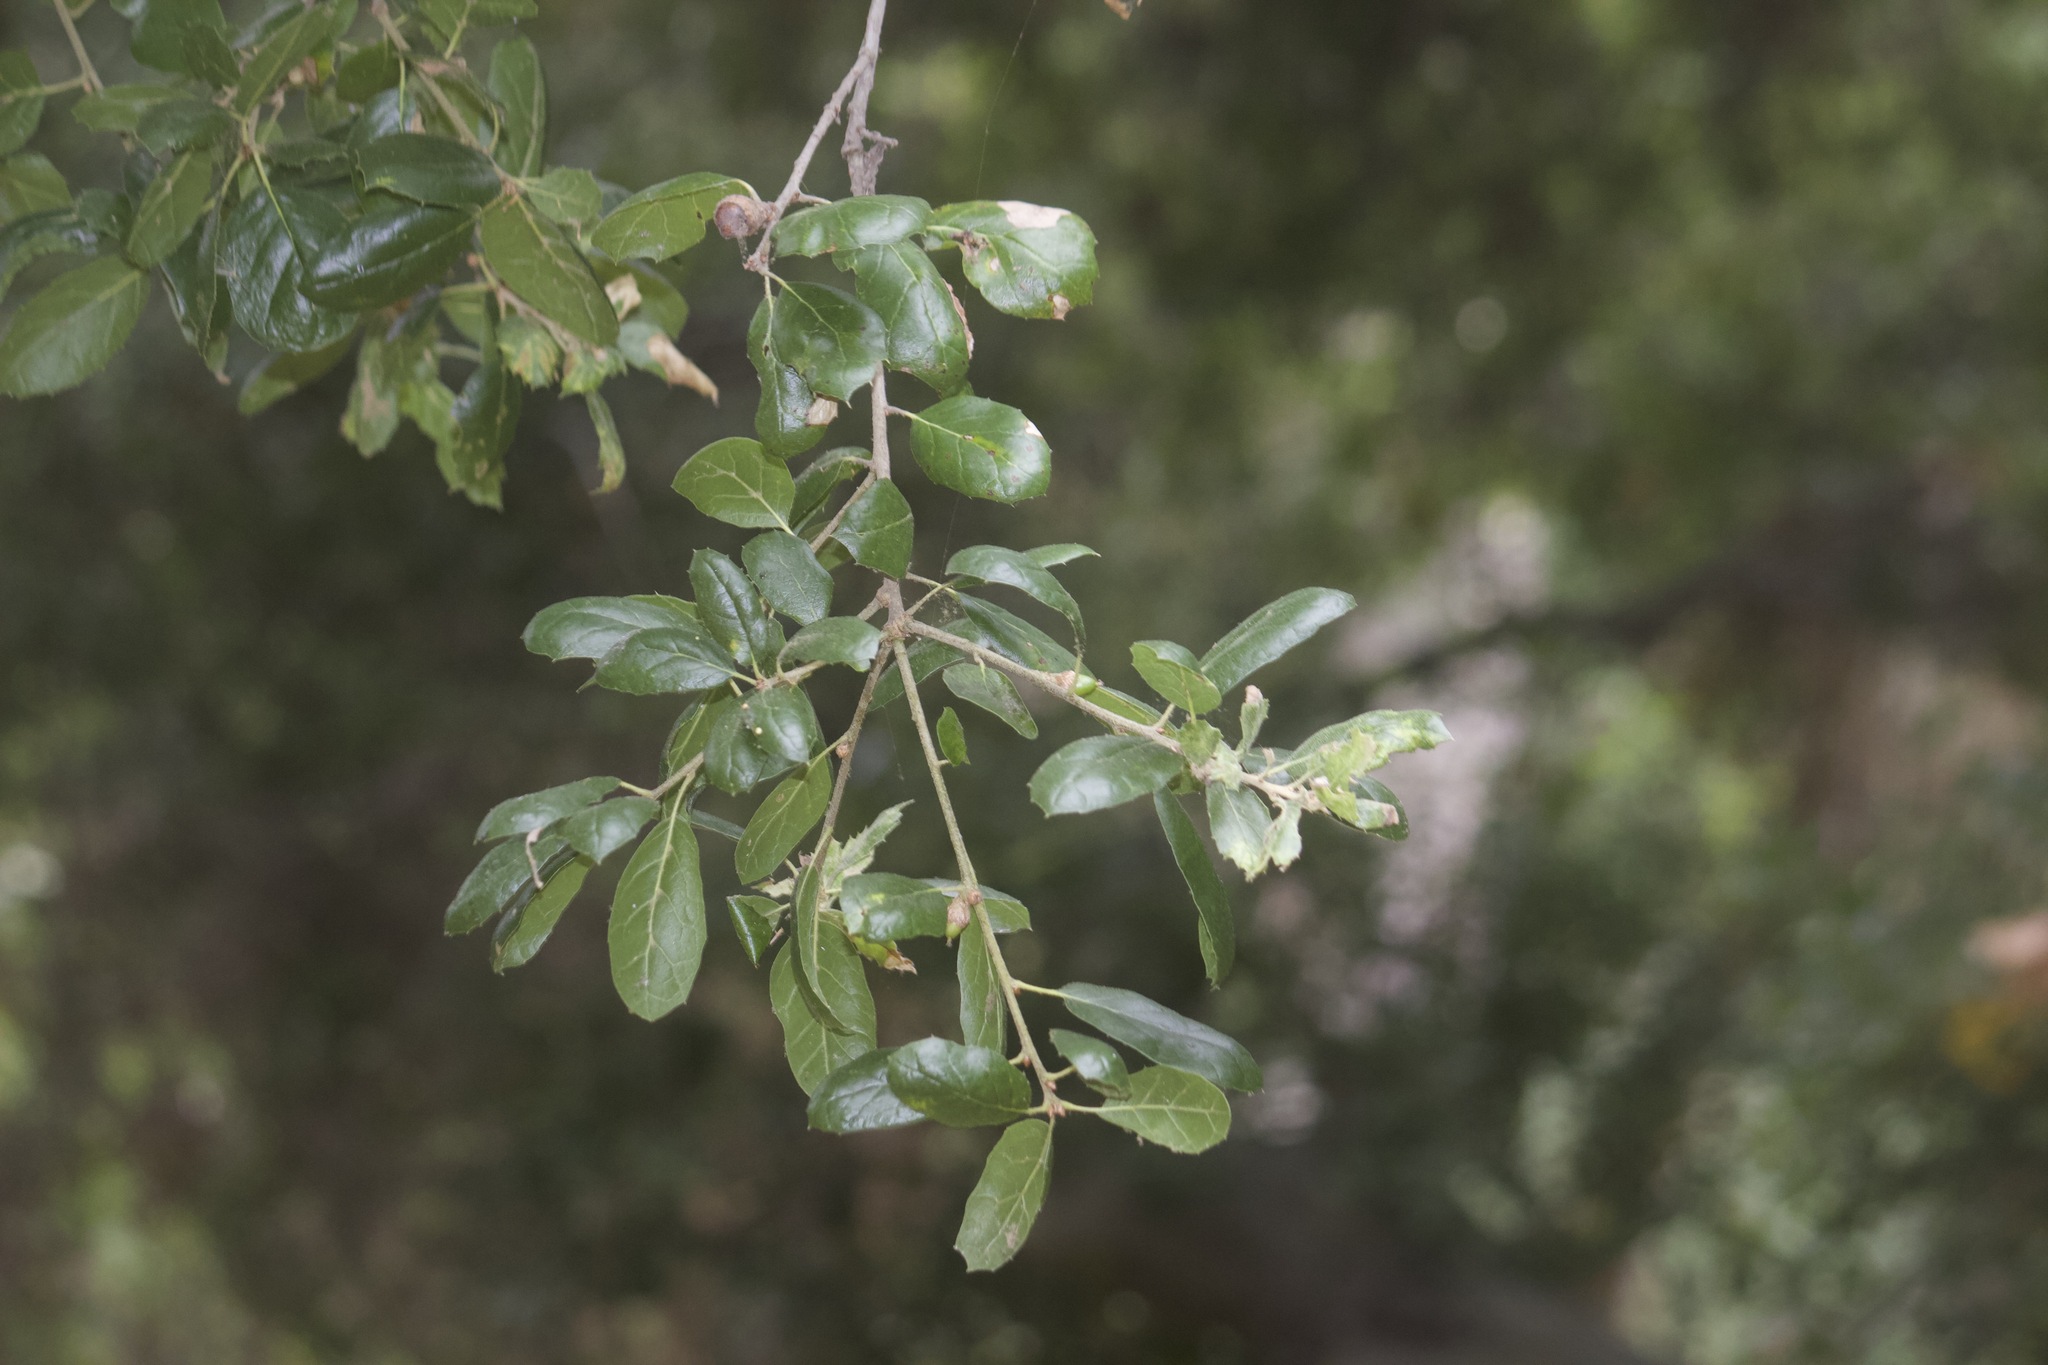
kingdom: Plantae
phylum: Tracheophyta
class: Magnoliopsida
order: Fagales
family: Fagaceae
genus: Quercus
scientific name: Quercus agrifolia
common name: California live oak
